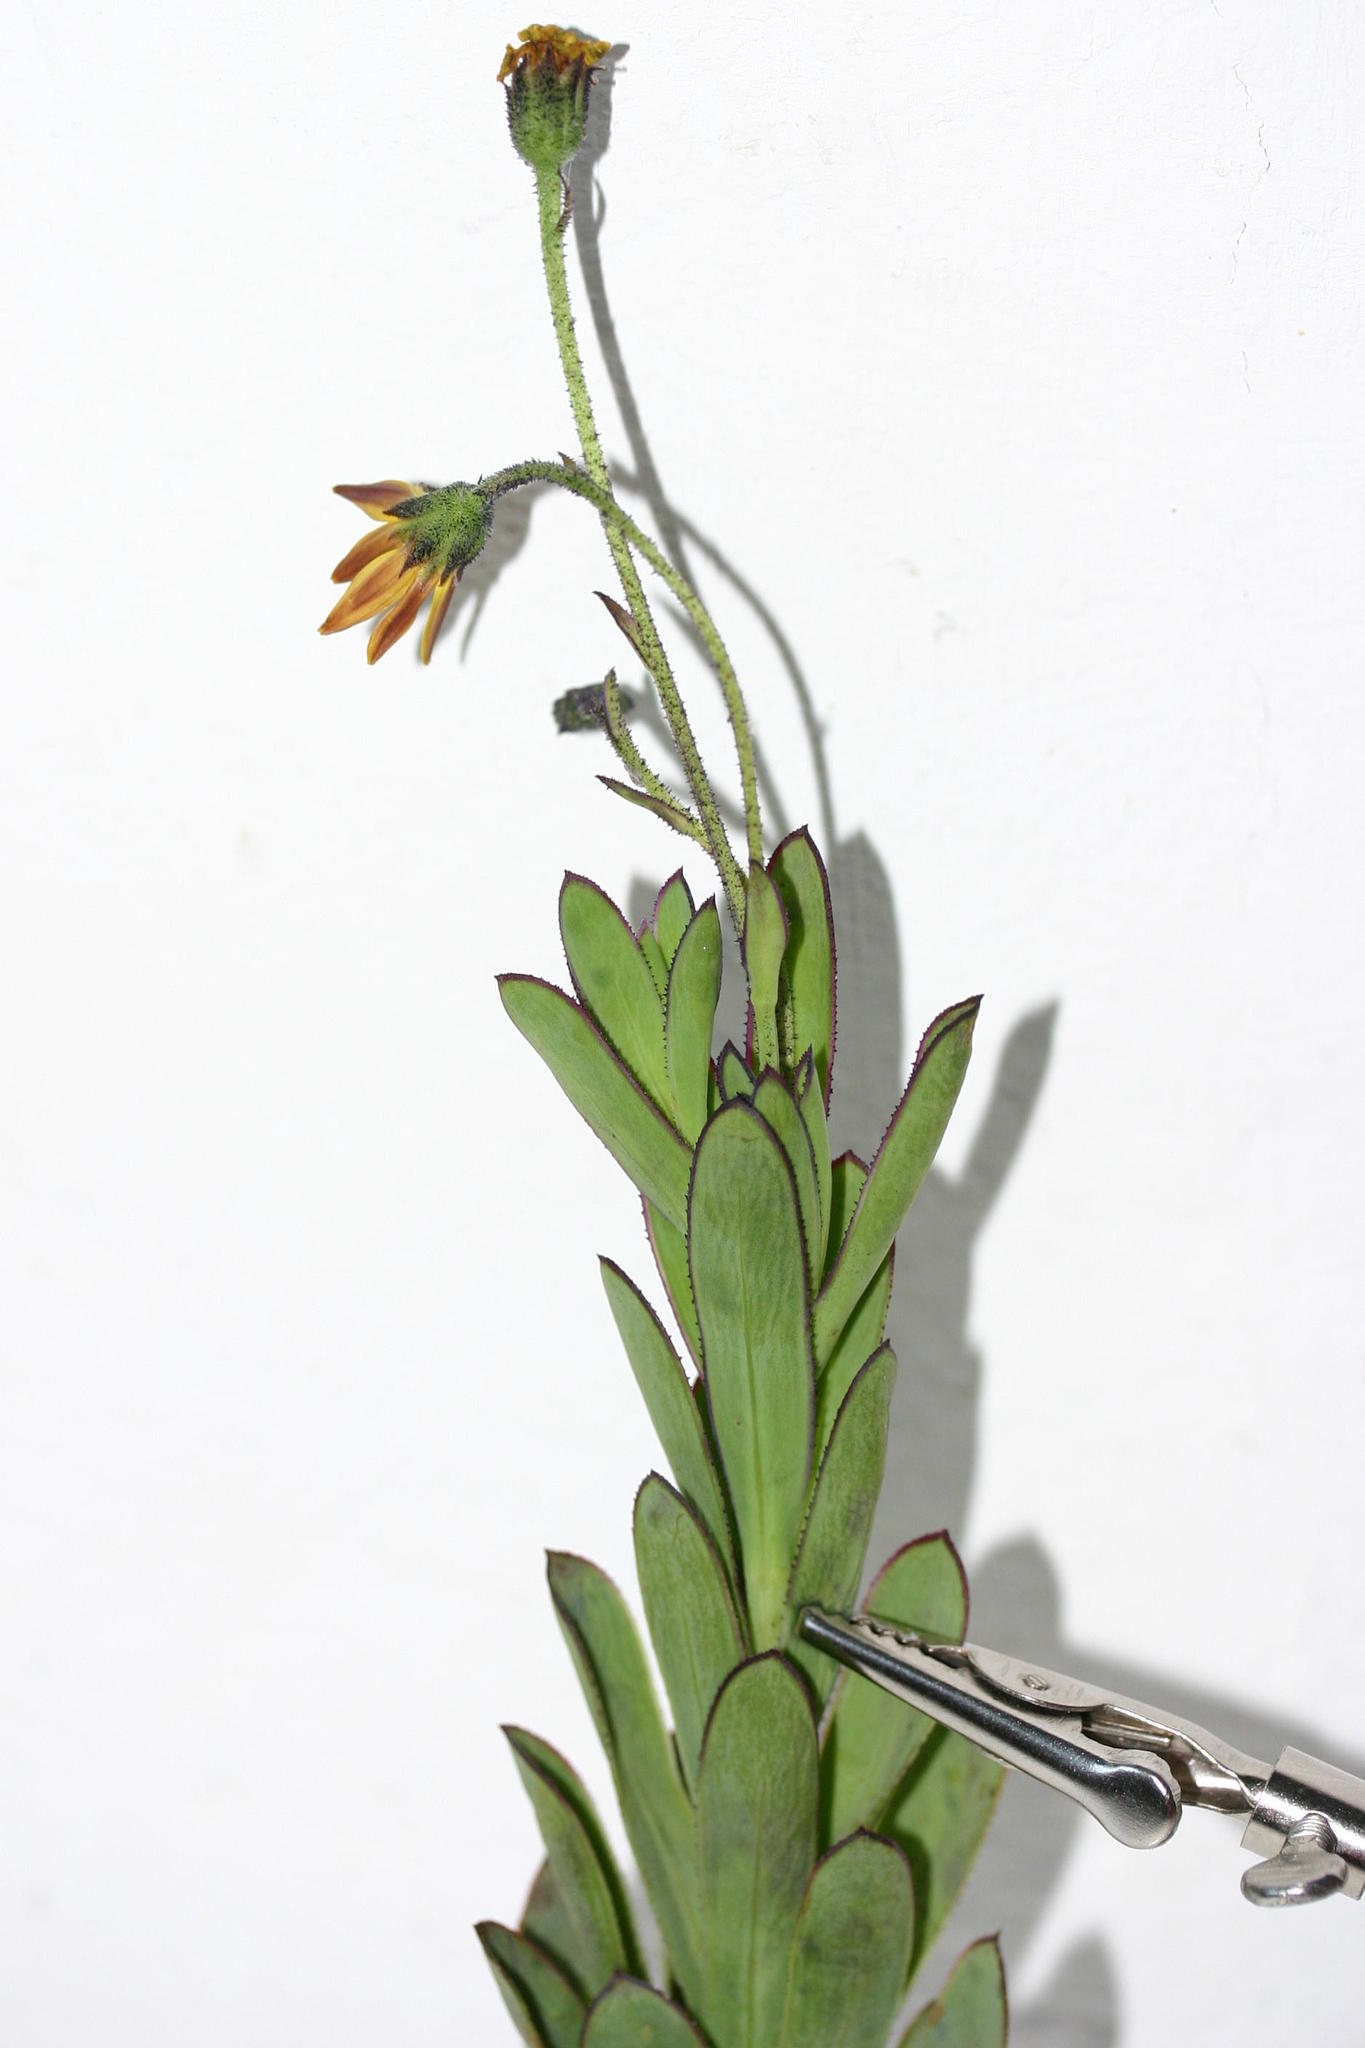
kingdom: Plantae
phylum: Tracheophyta
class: Magnoliopsida
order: Asterales
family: Asteraceae
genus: Osteospermum
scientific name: Osteospermum burttianum
